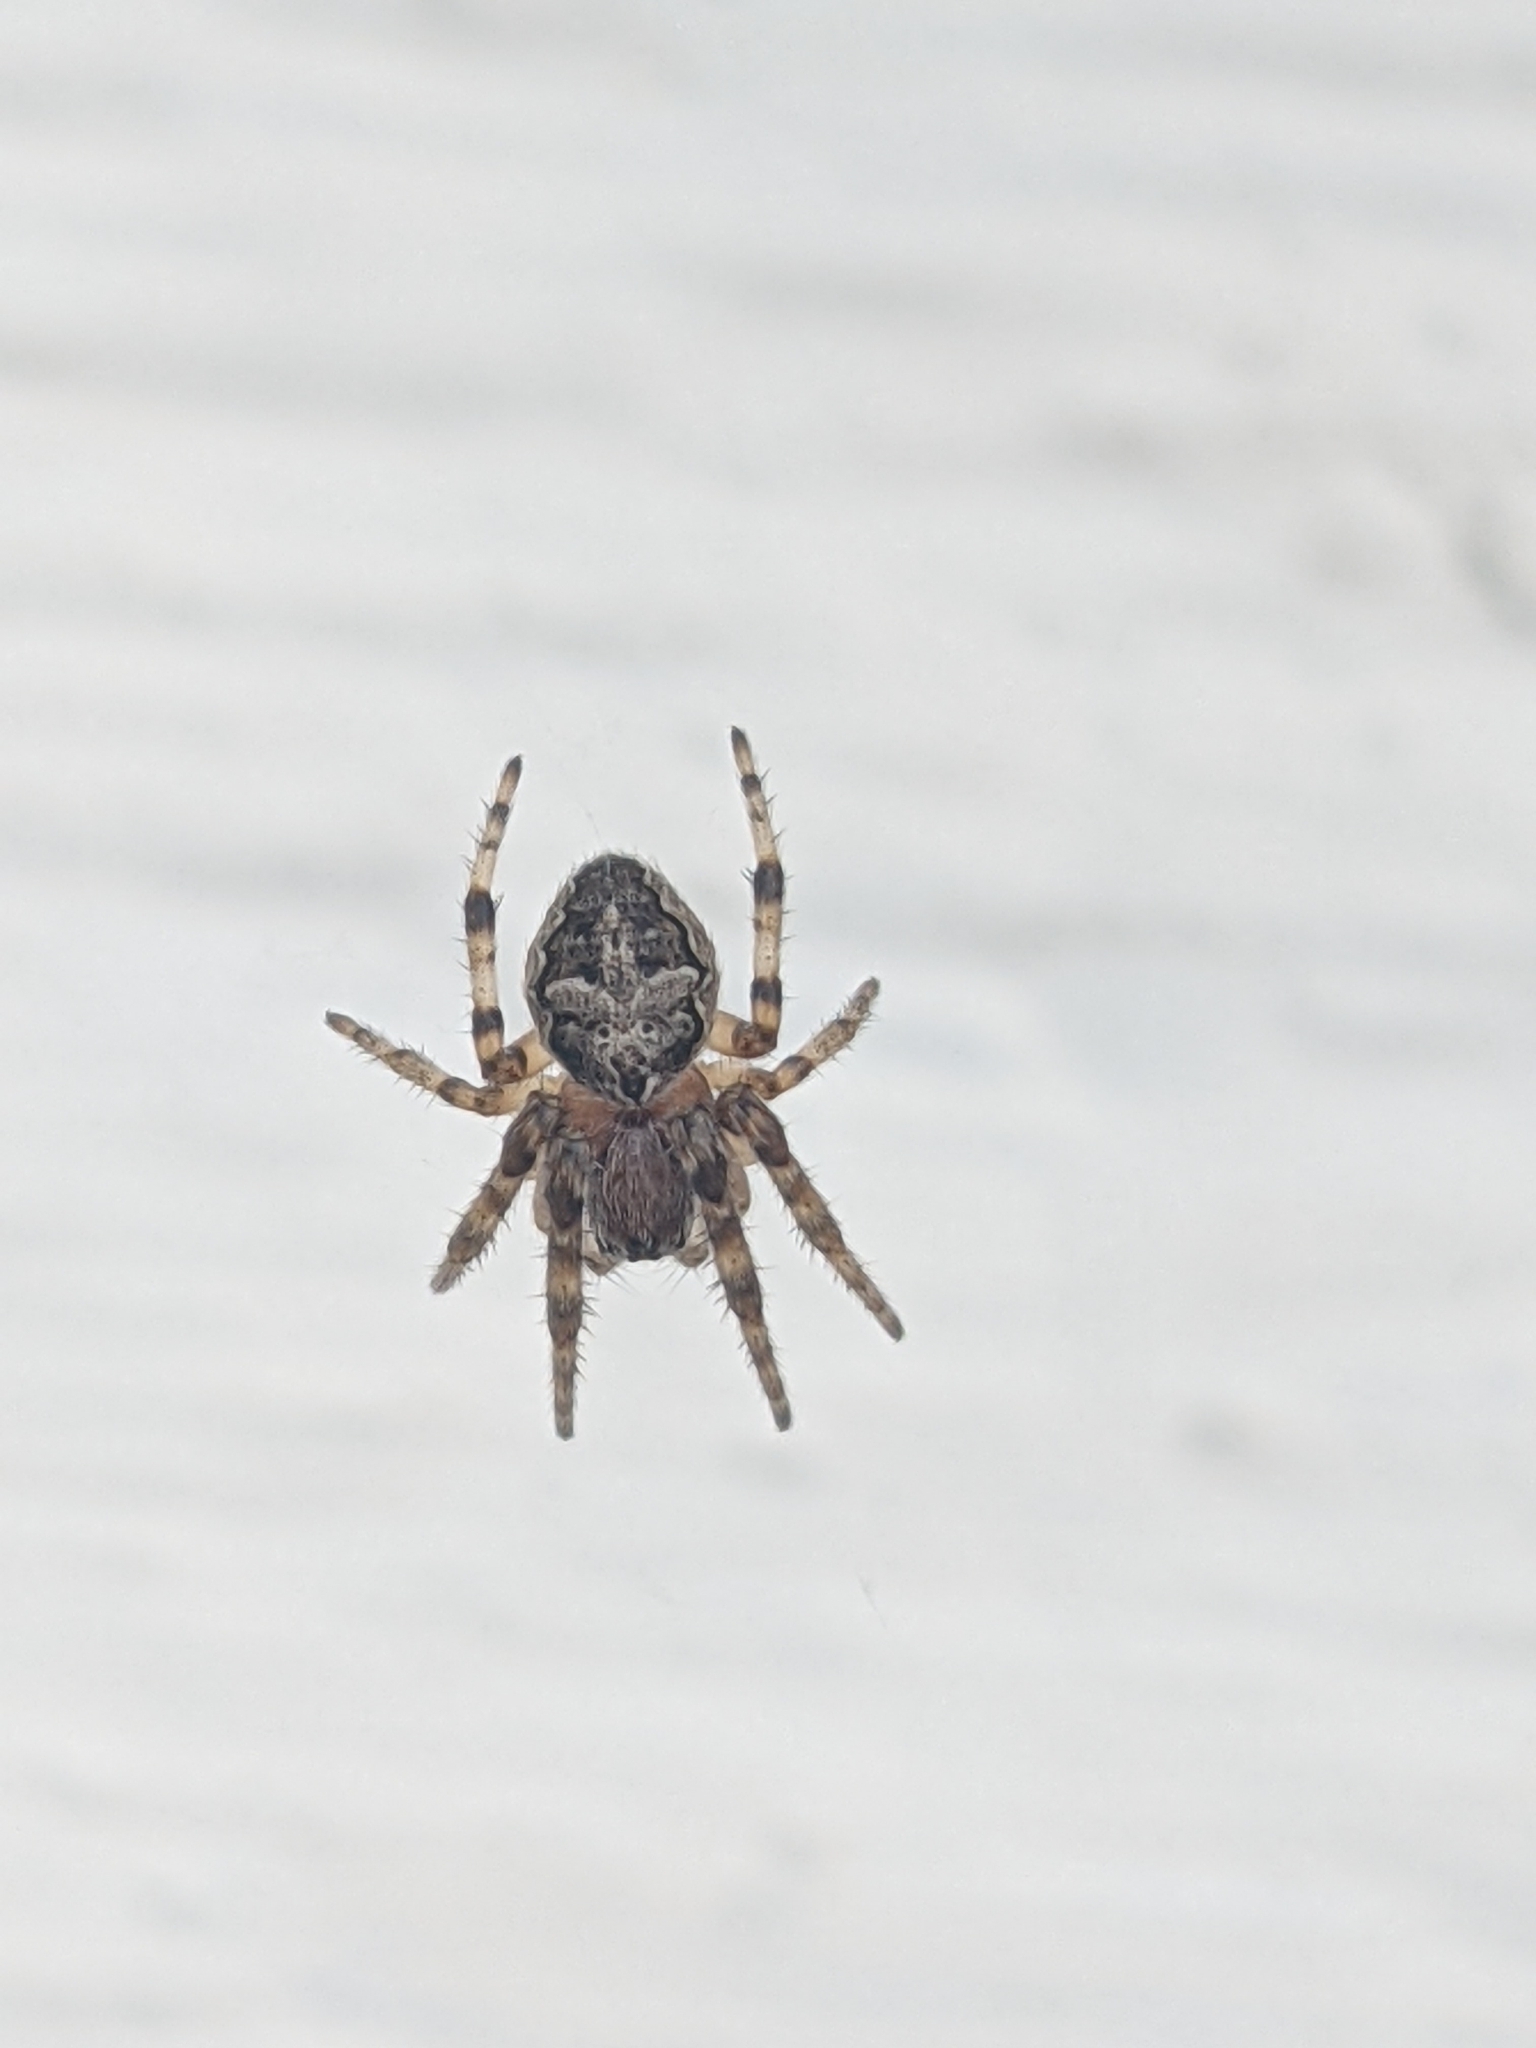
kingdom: Animalia
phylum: Arthropoda
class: Arachnida
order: Araneae
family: Araneidae
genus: Larinioides
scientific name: Larinioides patagiatus
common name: Ornamental orbweaver
